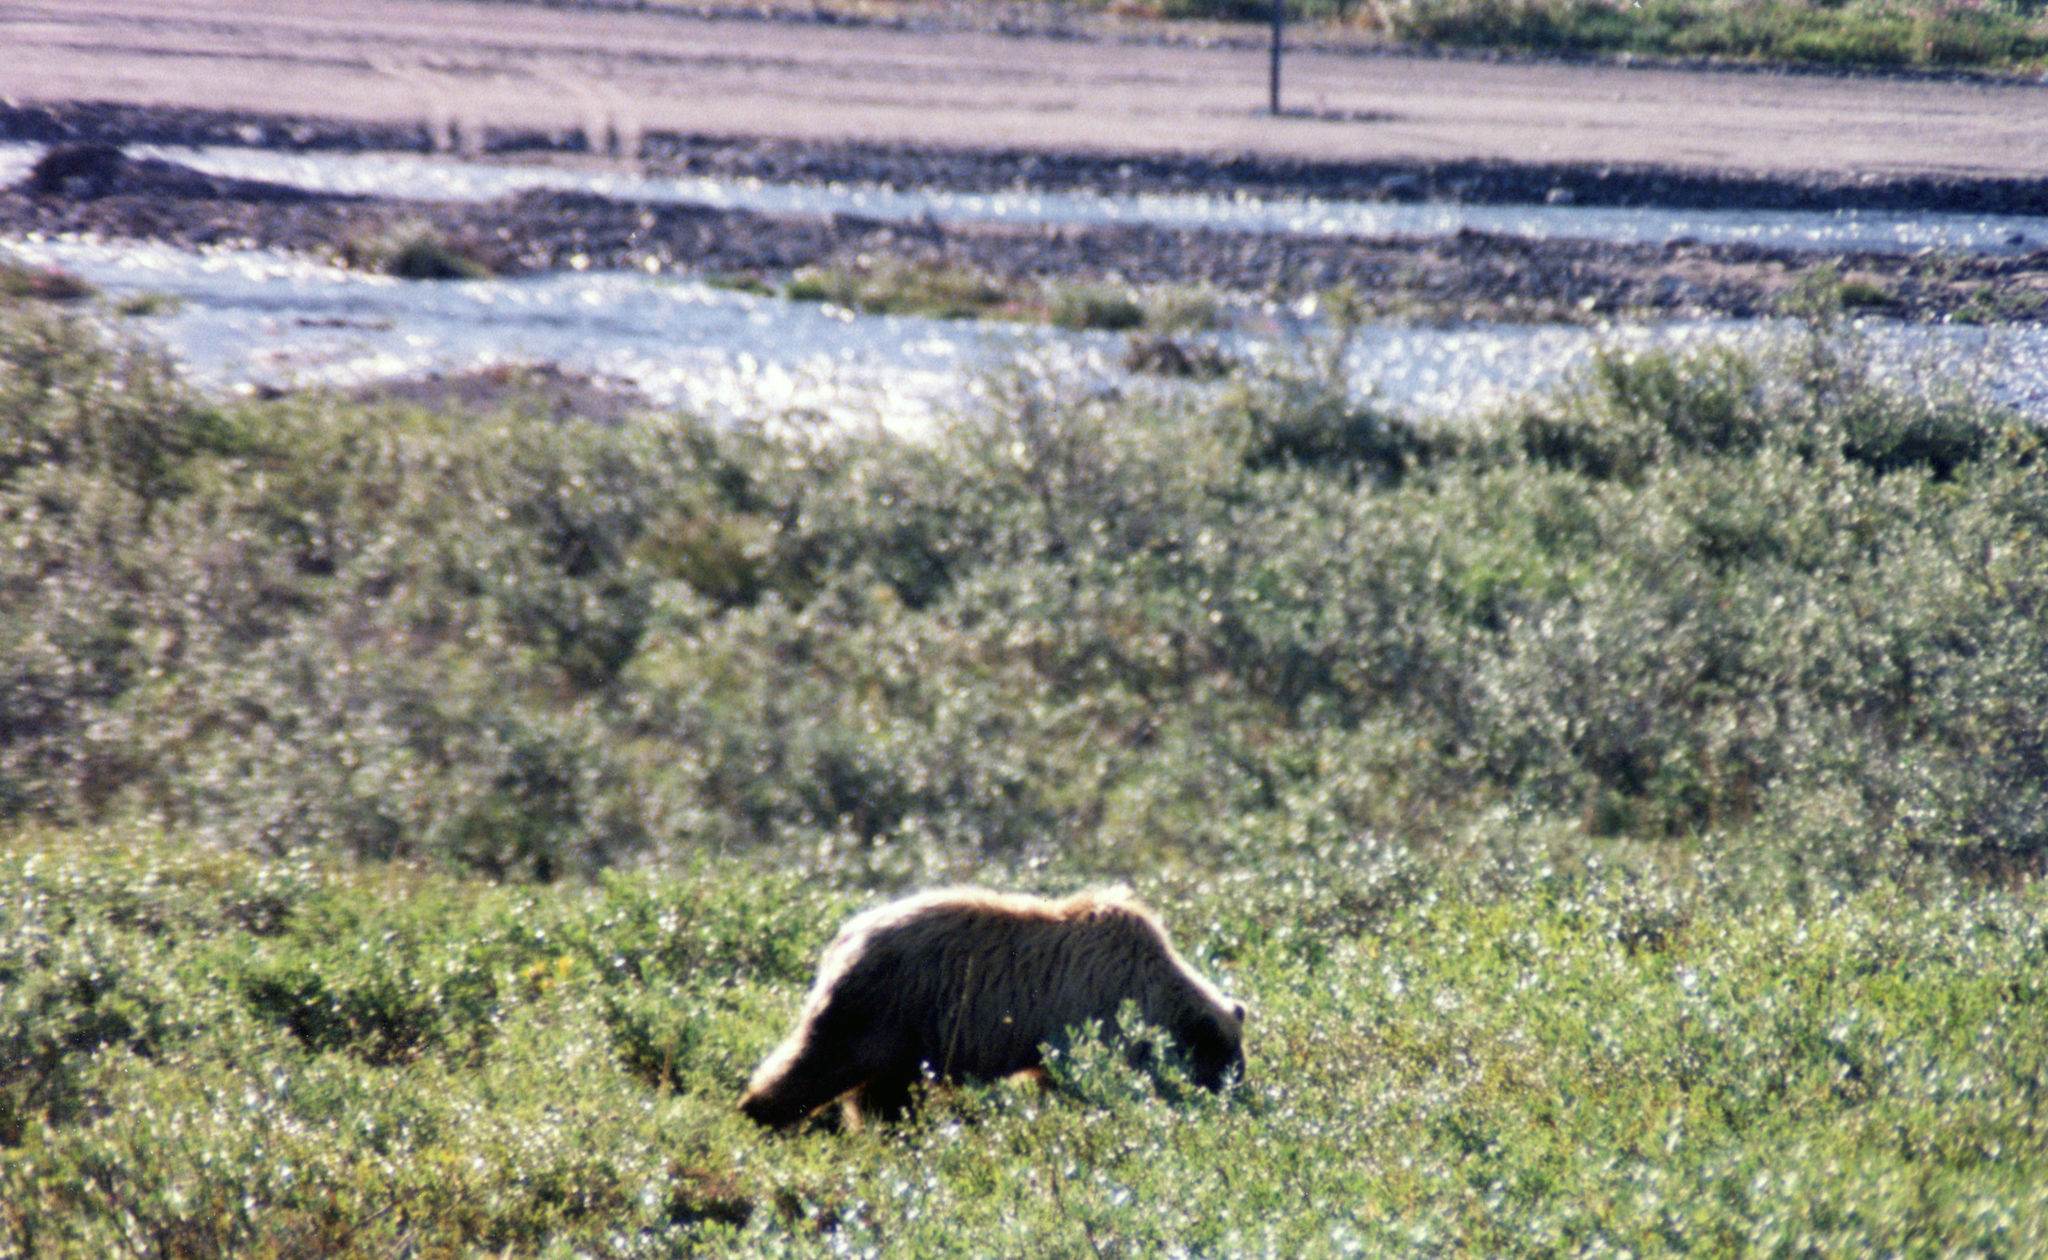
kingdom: Animalia
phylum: Chordata
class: Mammalia
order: Carnivora
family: Ursidae
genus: Ursus
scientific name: Ursus arctos
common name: Brown bear
